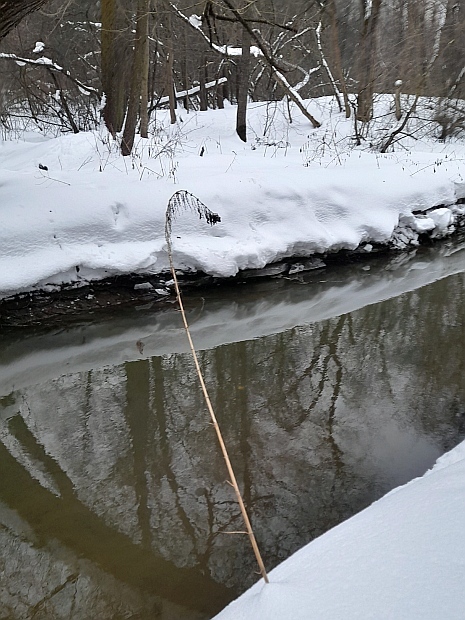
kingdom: Plantae
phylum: Tracheophyta
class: Magnoliopsida
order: Rosales
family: Urticaceae
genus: Urtica
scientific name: Urtica dioica
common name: Common nettle
